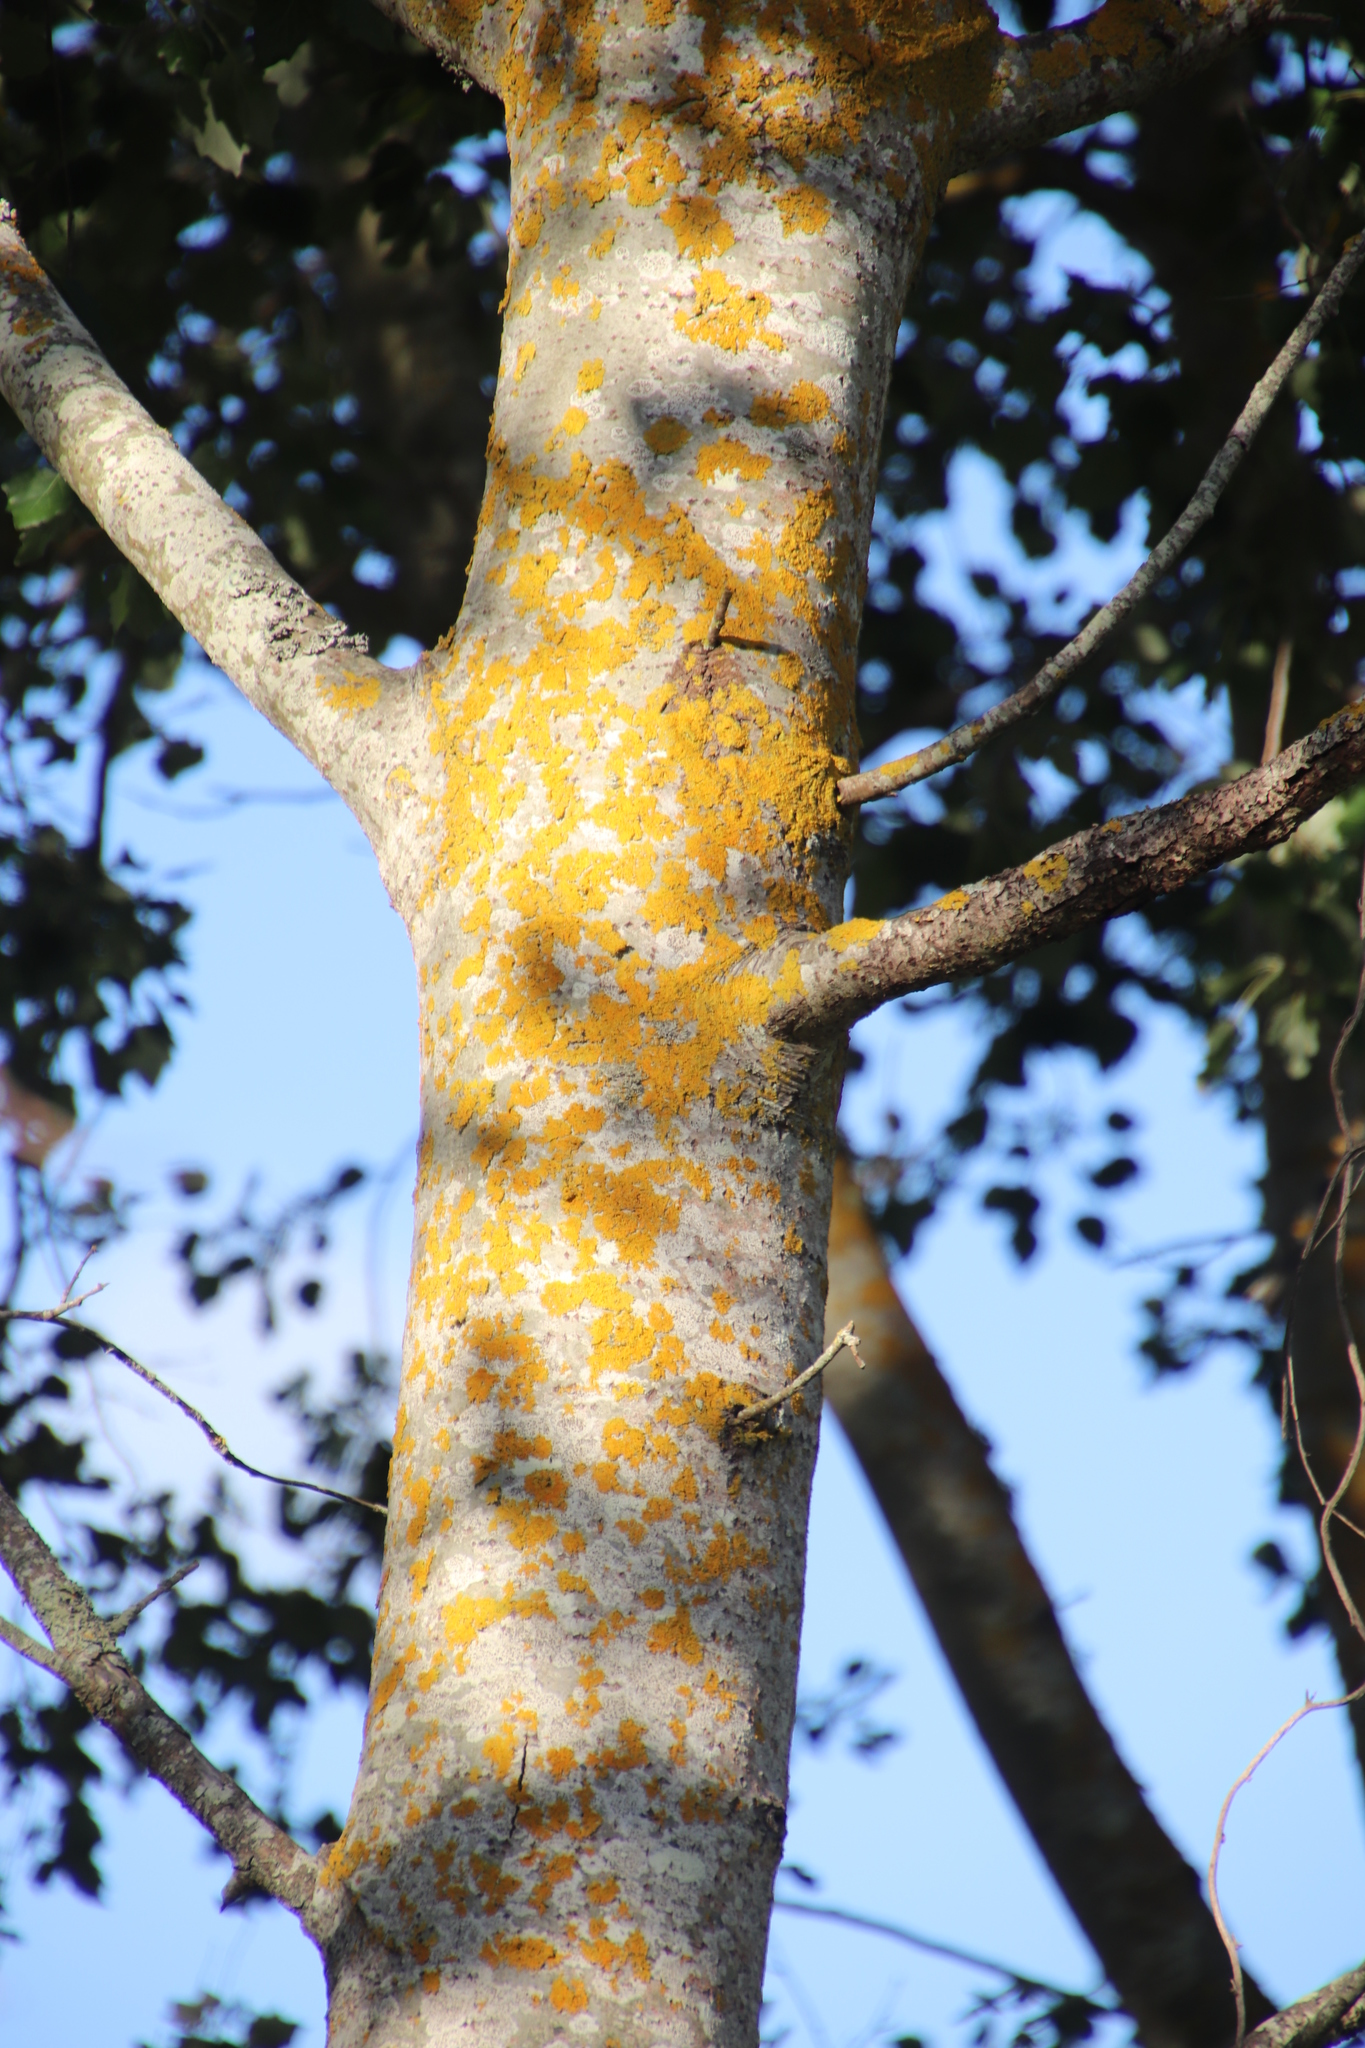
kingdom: Fungi
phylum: Ascomycota
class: Lecanoromycetes
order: Teloschistales
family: Teloschistaceae
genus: Xanthoria
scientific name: Xanthoria parietina
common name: Common orange lichen
